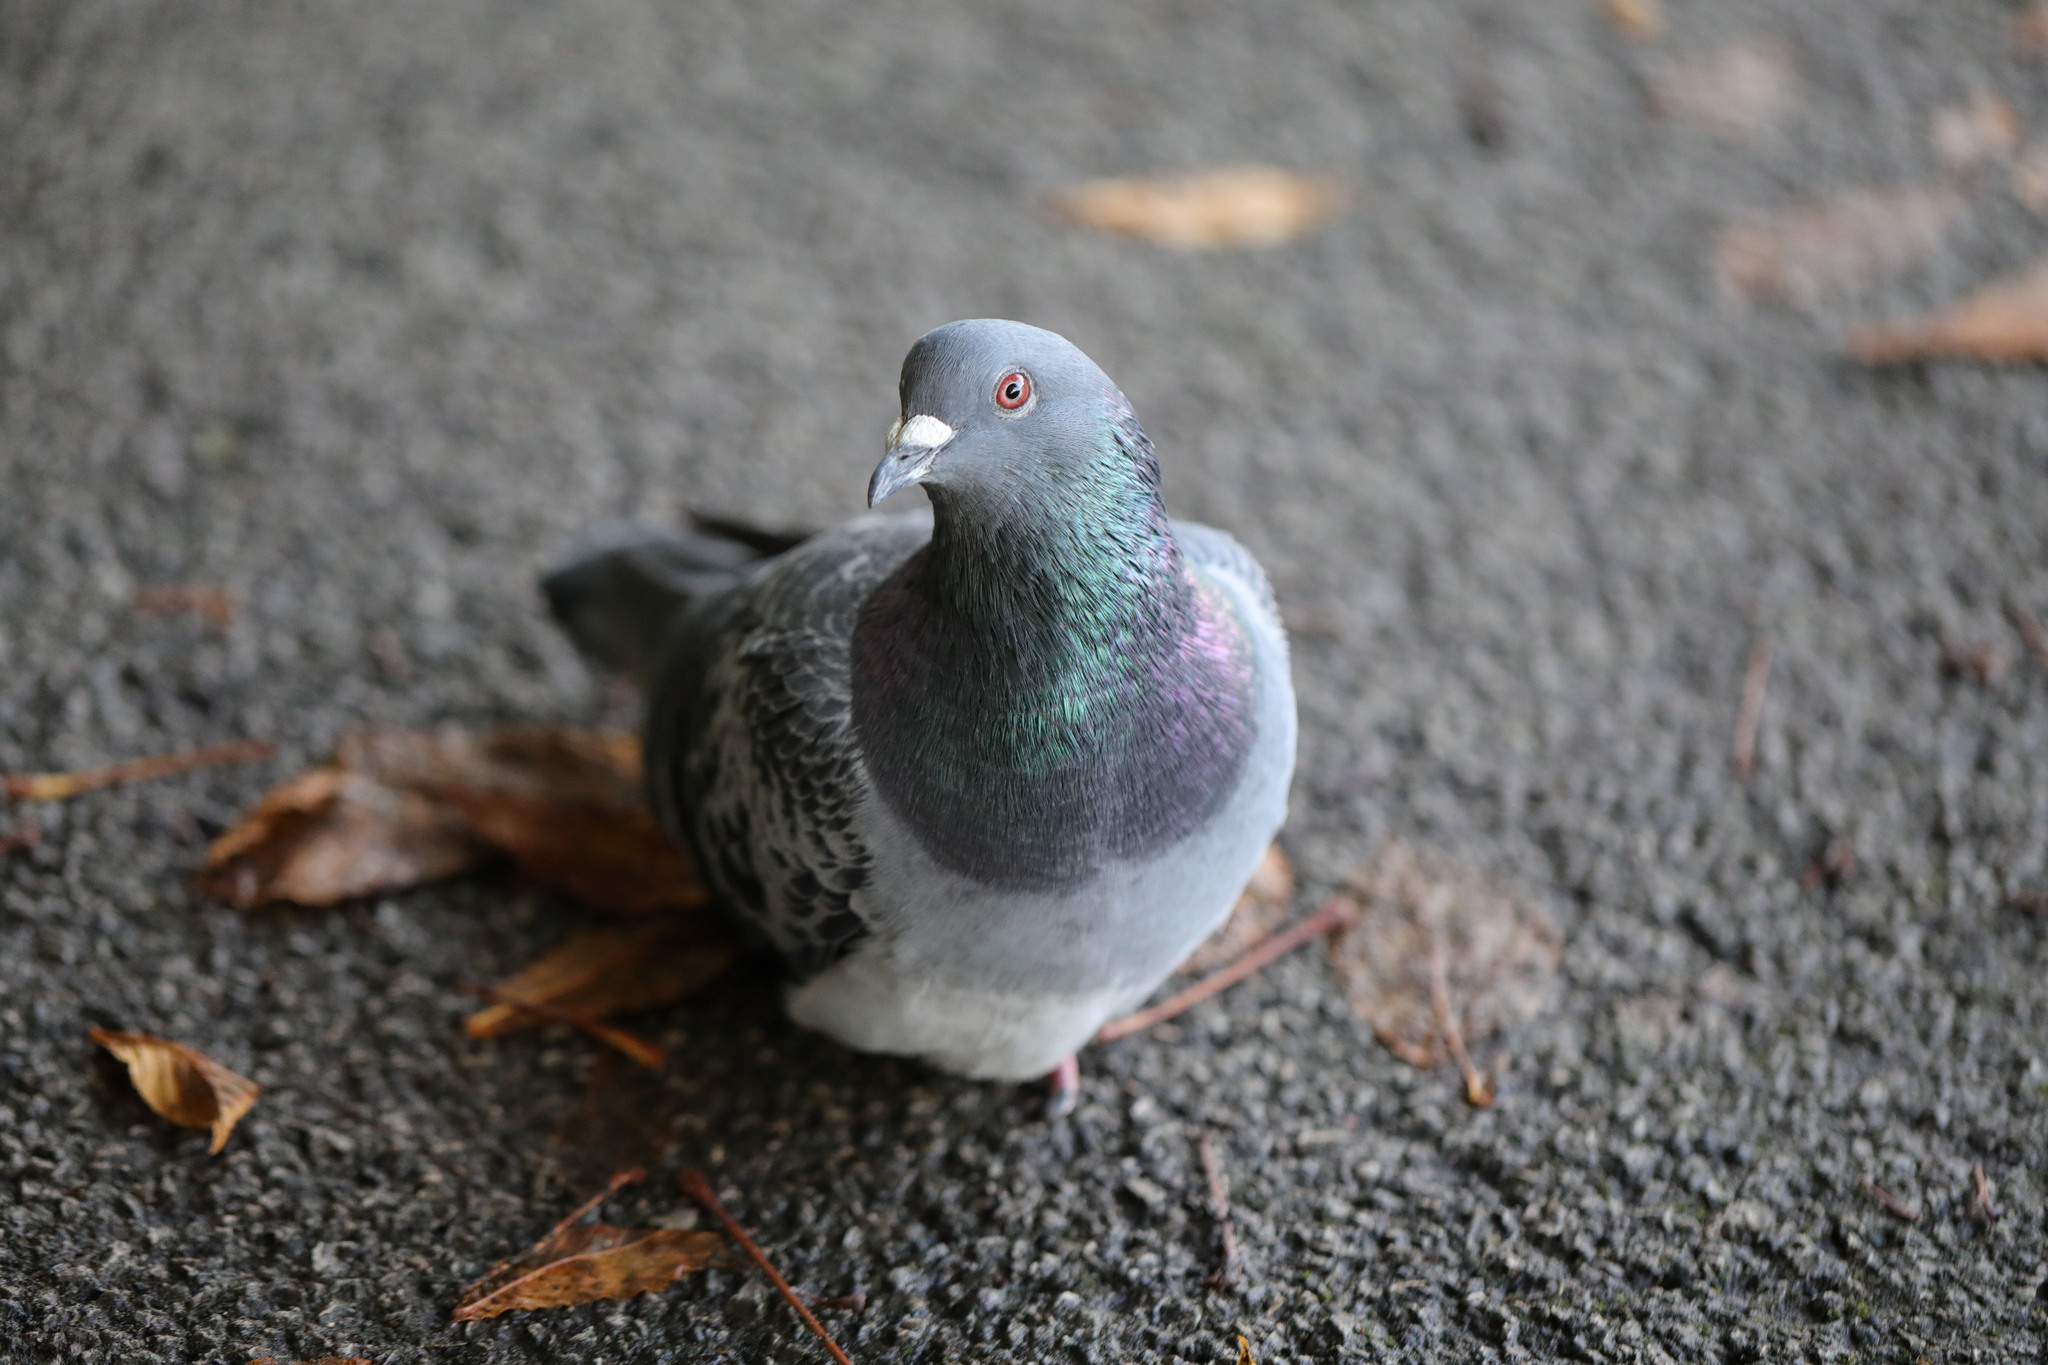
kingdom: Animalia
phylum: Chordata
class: Aves
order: Columbiformes
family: Columbidae
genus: Columba
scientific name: Columba livia
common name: Rock pigeon
